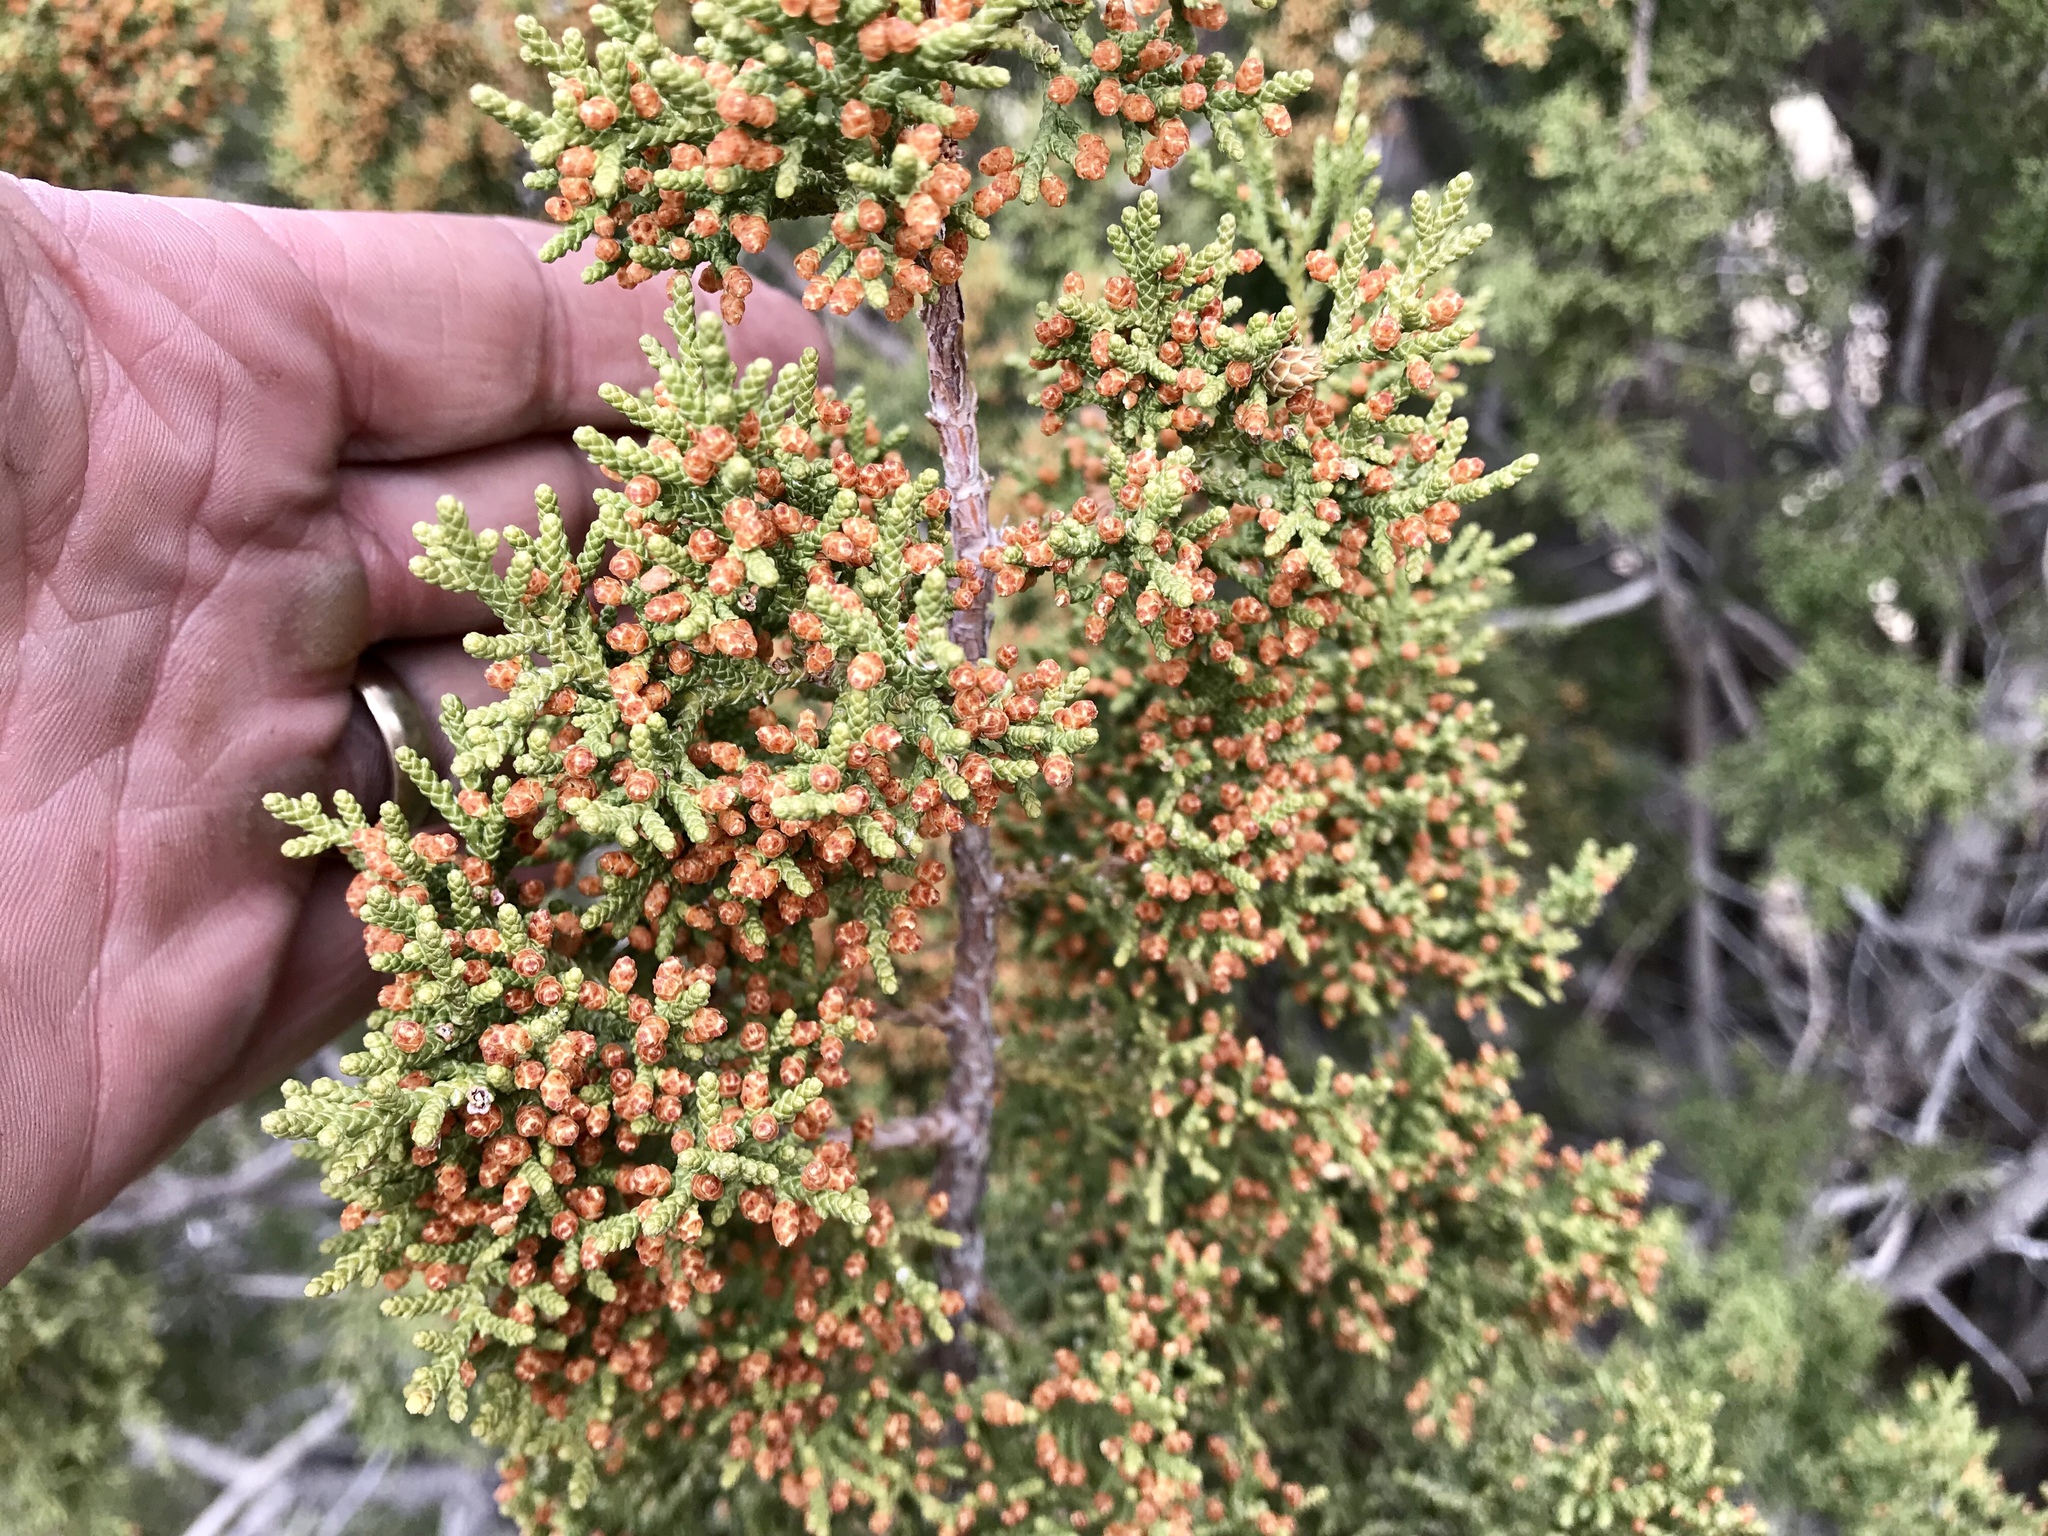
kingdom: Plantae
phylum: Tracheophyta
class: Pinopsida
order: Pinales
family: Cupressaceae
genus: Juniperus
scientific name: Juniperus monosperma
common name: One-seed juniper
